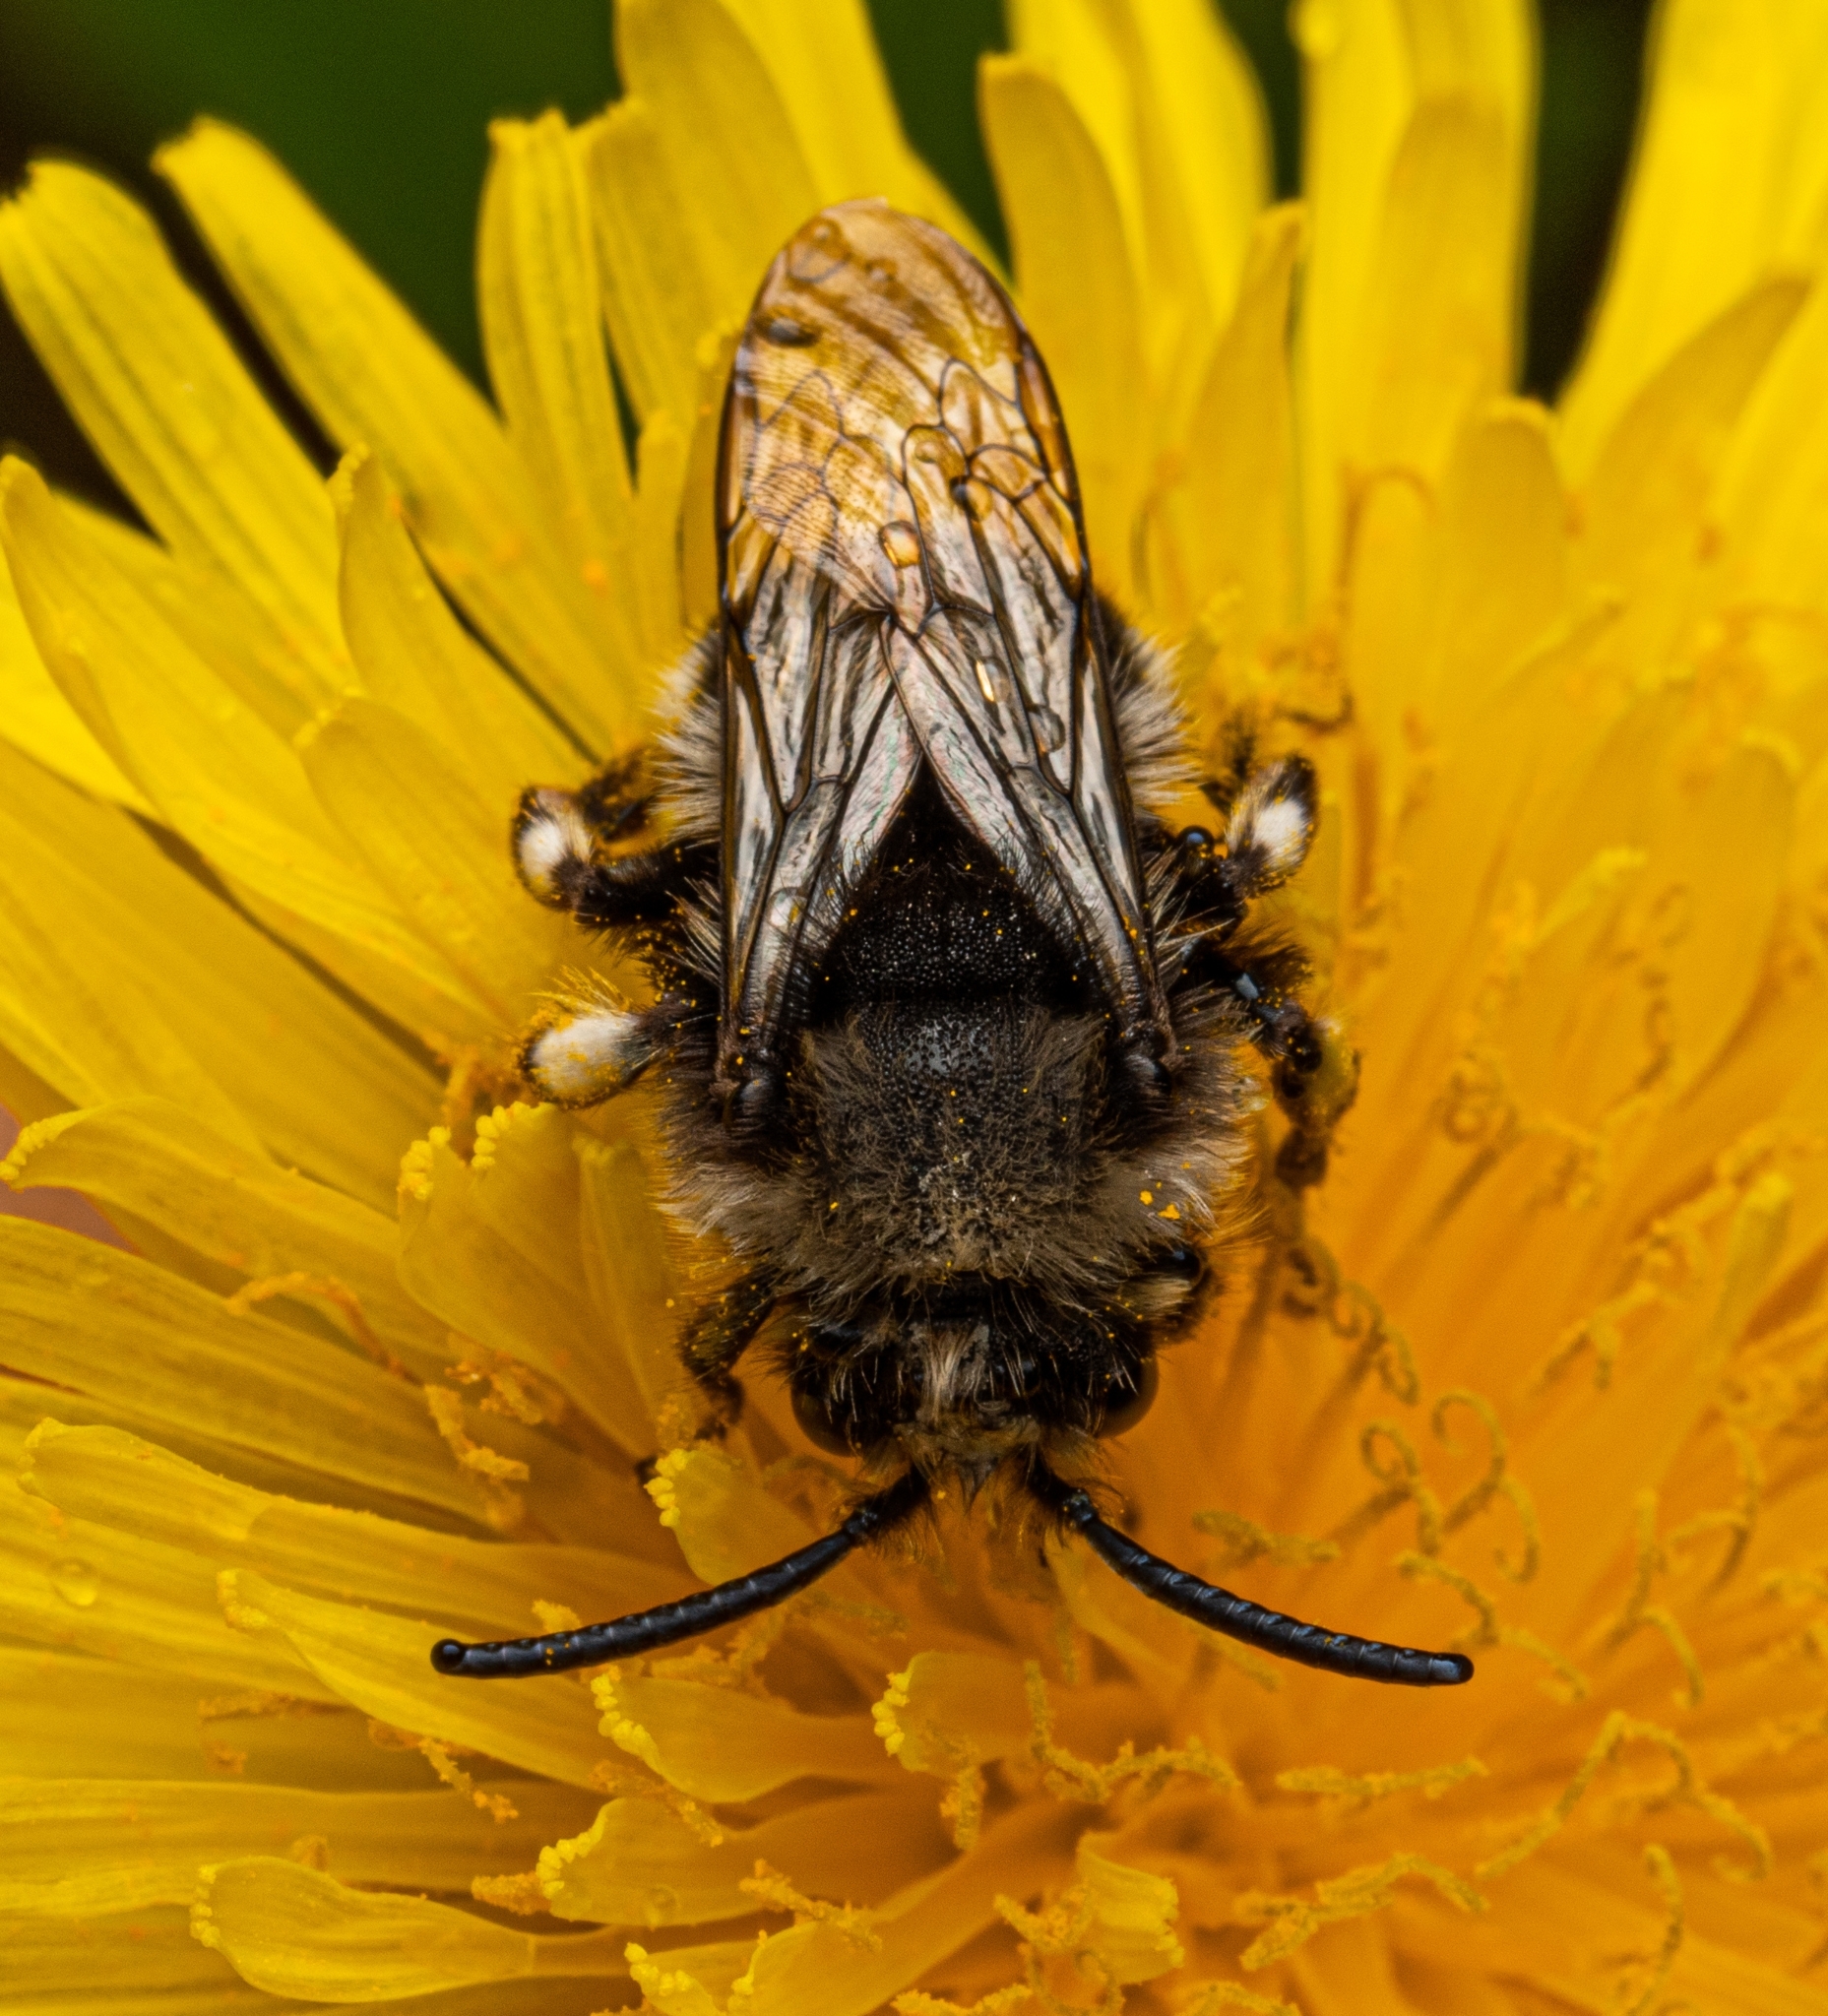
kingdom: Animalia
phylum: Arthropoda
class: Insecta
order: Hymenoptera
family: Apidae
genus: Melecta
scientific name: Melecta albifrons
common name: Common mourning bee
